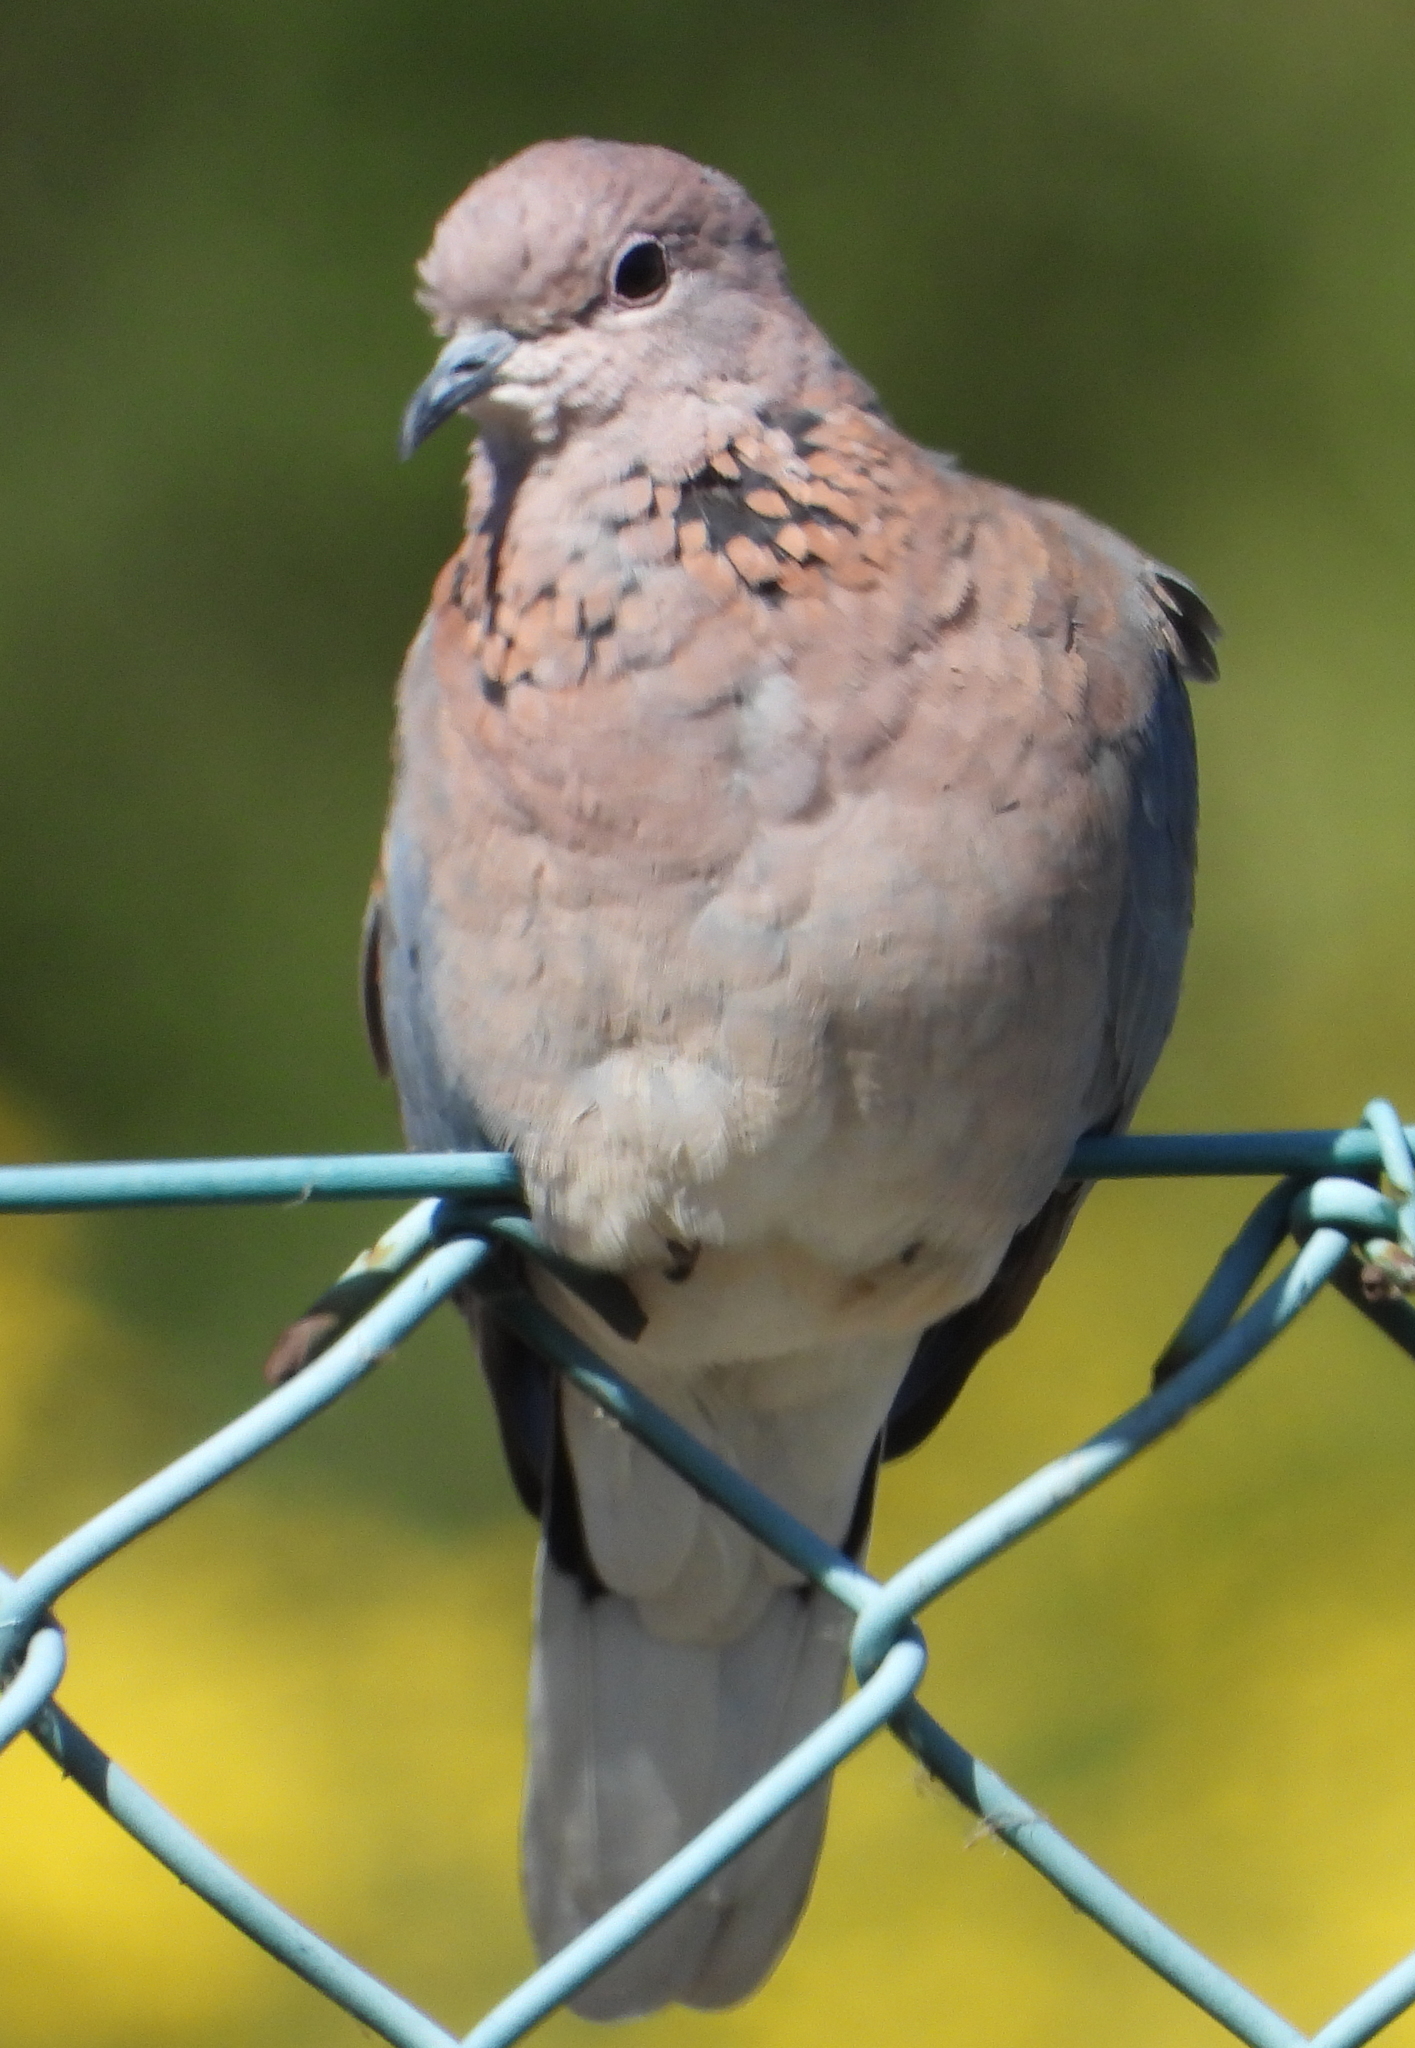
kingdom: Animalia
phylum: Chordata
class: Aves
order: Columbiformes
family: Columbidae
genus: Spilopelia
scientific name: Spilopelia senegalensis
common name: Laughing dove
